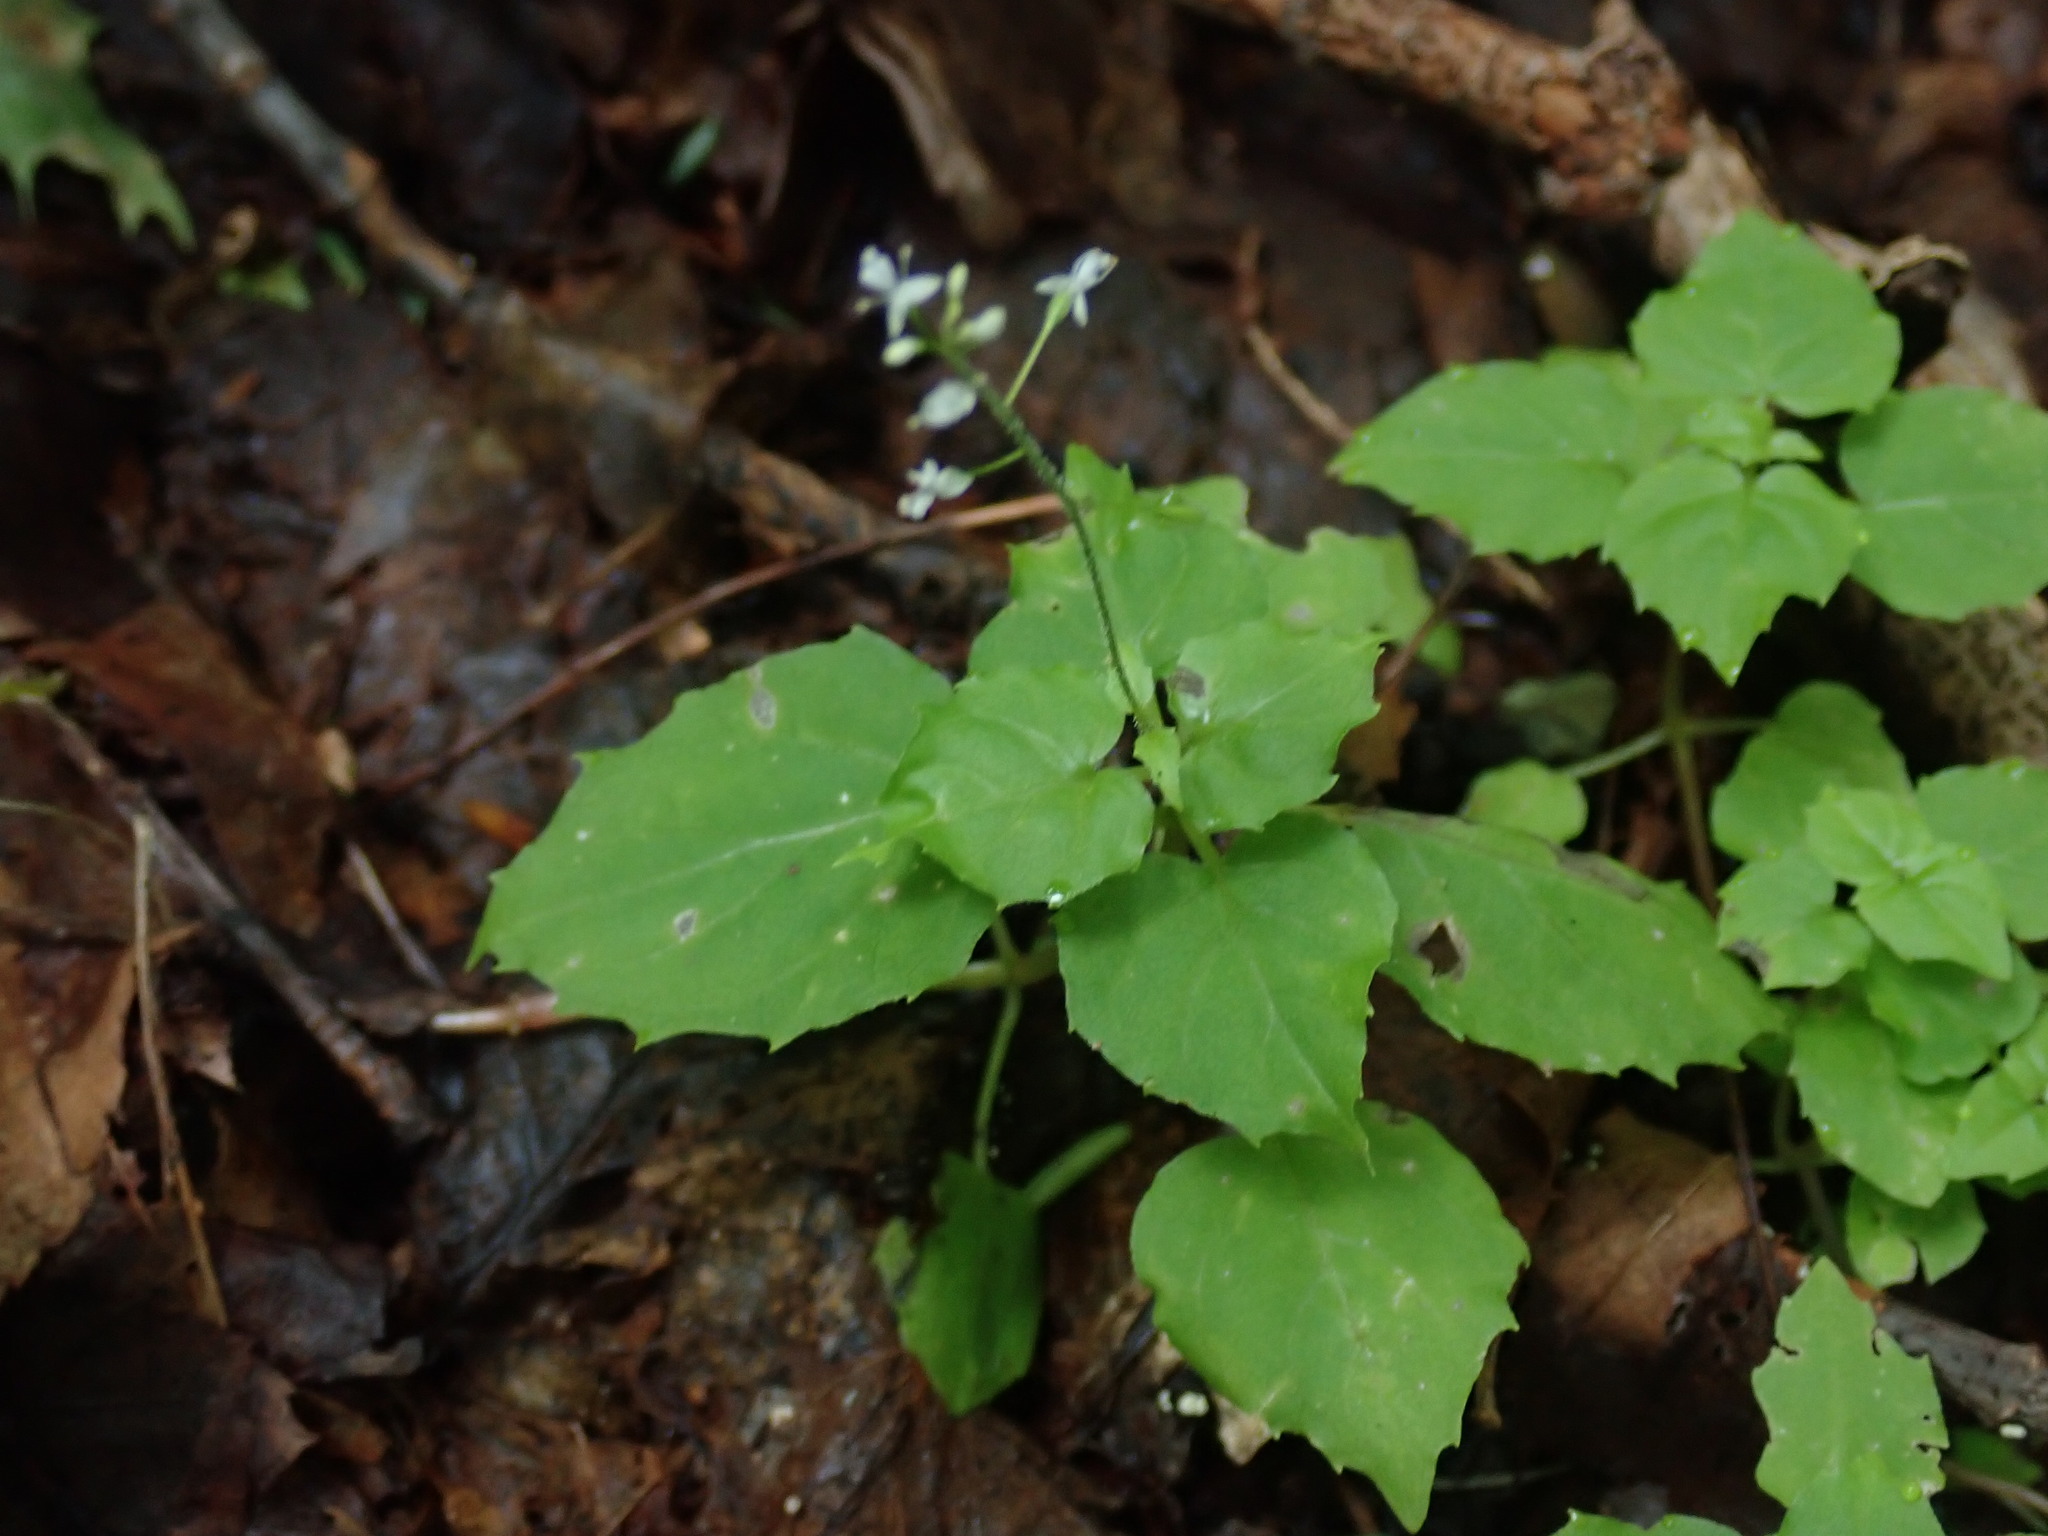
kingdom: Plantae
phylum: Tracheophyta
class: Magnoliopsida
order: Myrtales
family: Onagraceae
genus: Circaea
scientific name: Circaea alpina
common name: Alpine enchanter's-nightshade
